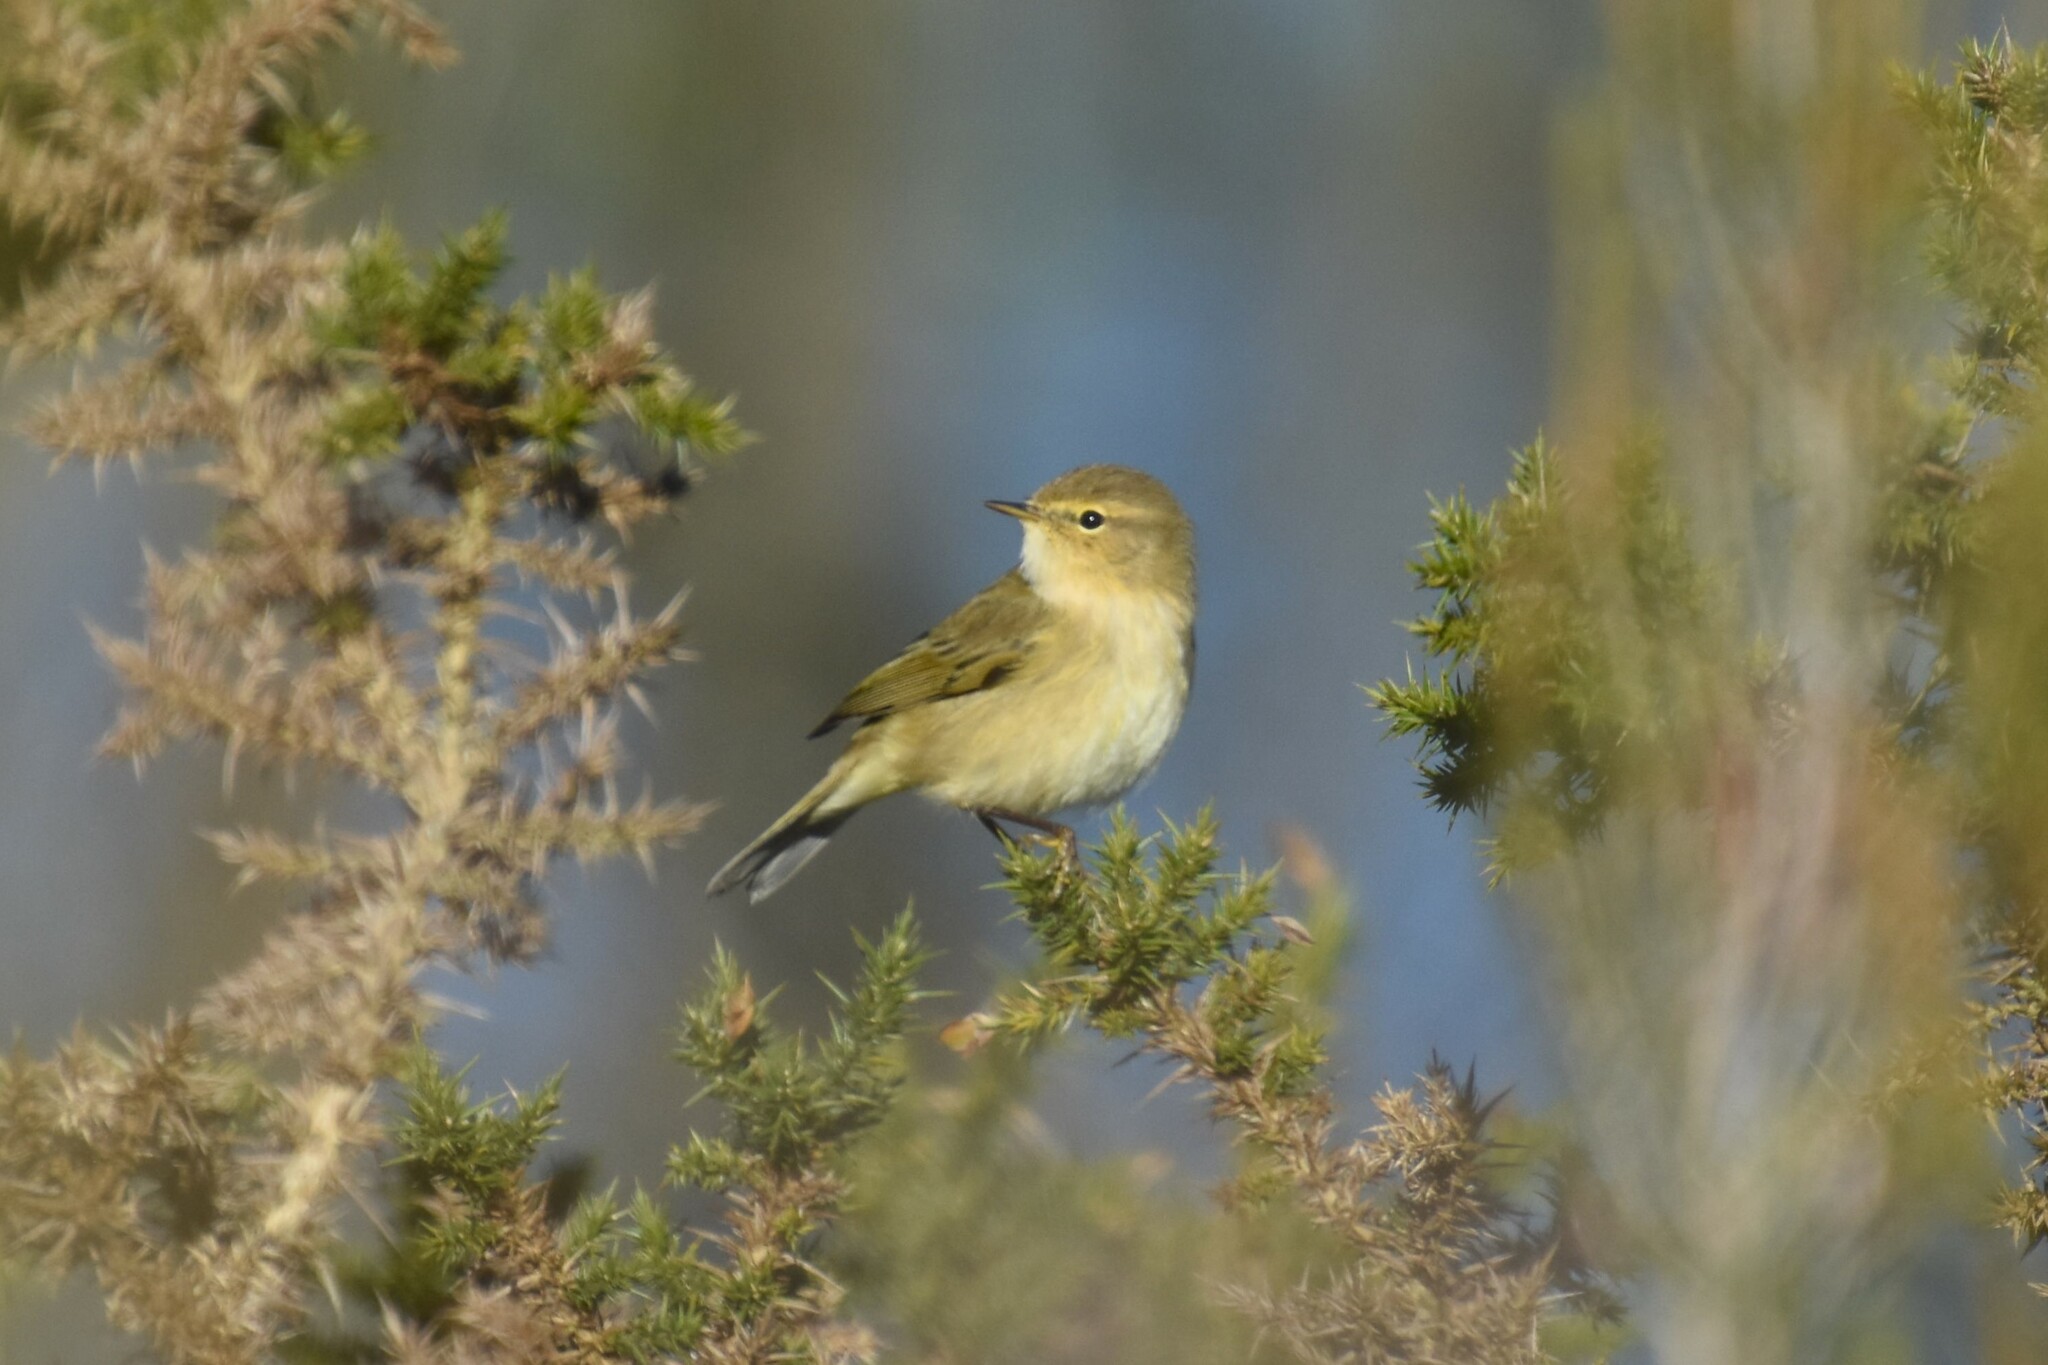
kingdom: Animalia
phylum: Chordata
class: Aves
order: Passeriformes
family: Phylloscopidae
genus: Phylloscopus
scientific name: Phylloscopus collybita
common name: Common chiffchaff
